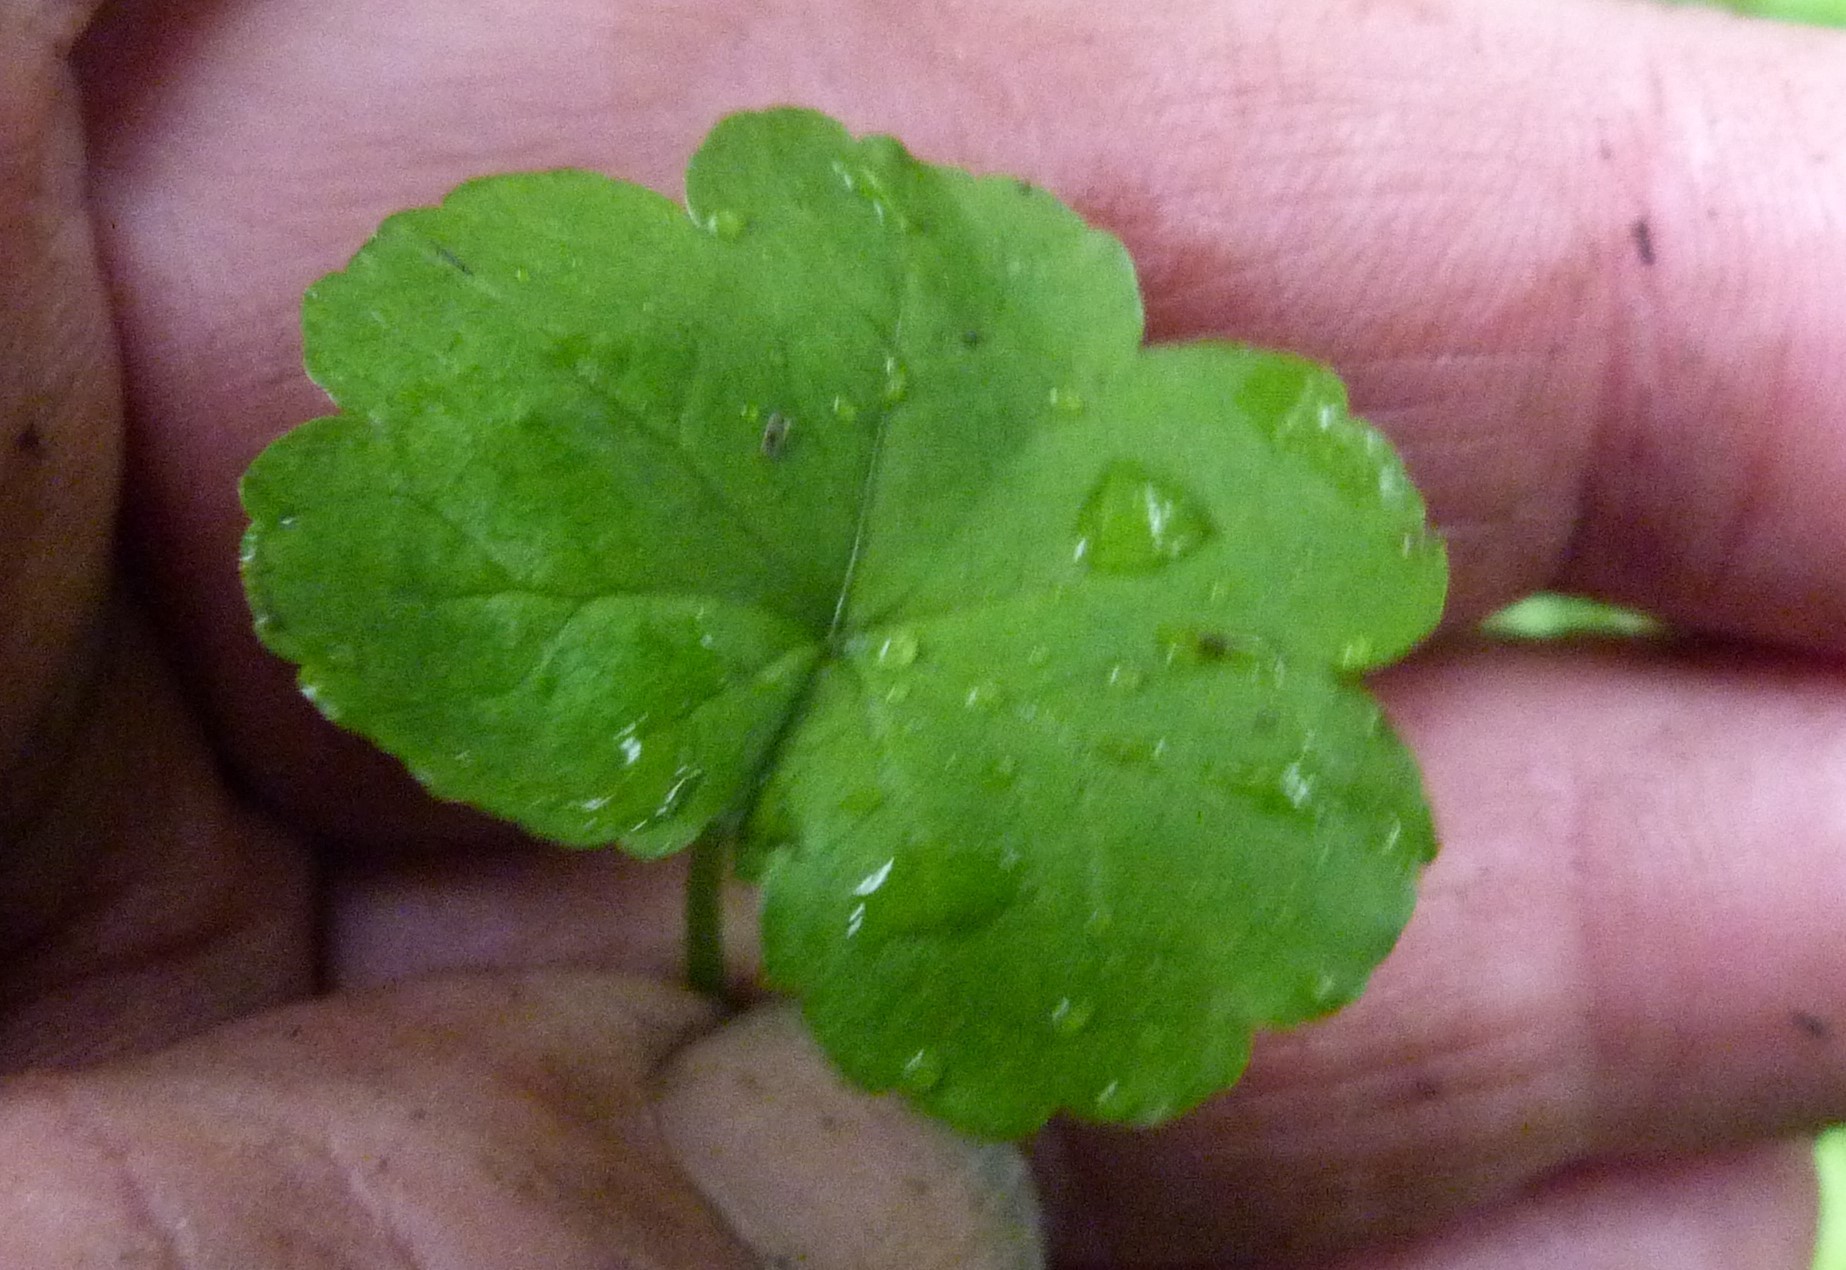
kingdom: Plantae
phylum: Tracheophyta
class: Magnoliopsida
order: Apiales
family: Araliaceae
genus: Hydrocotyle
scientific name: Hydrocotyle novae-zeelandiae
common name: New zealand pennywort
